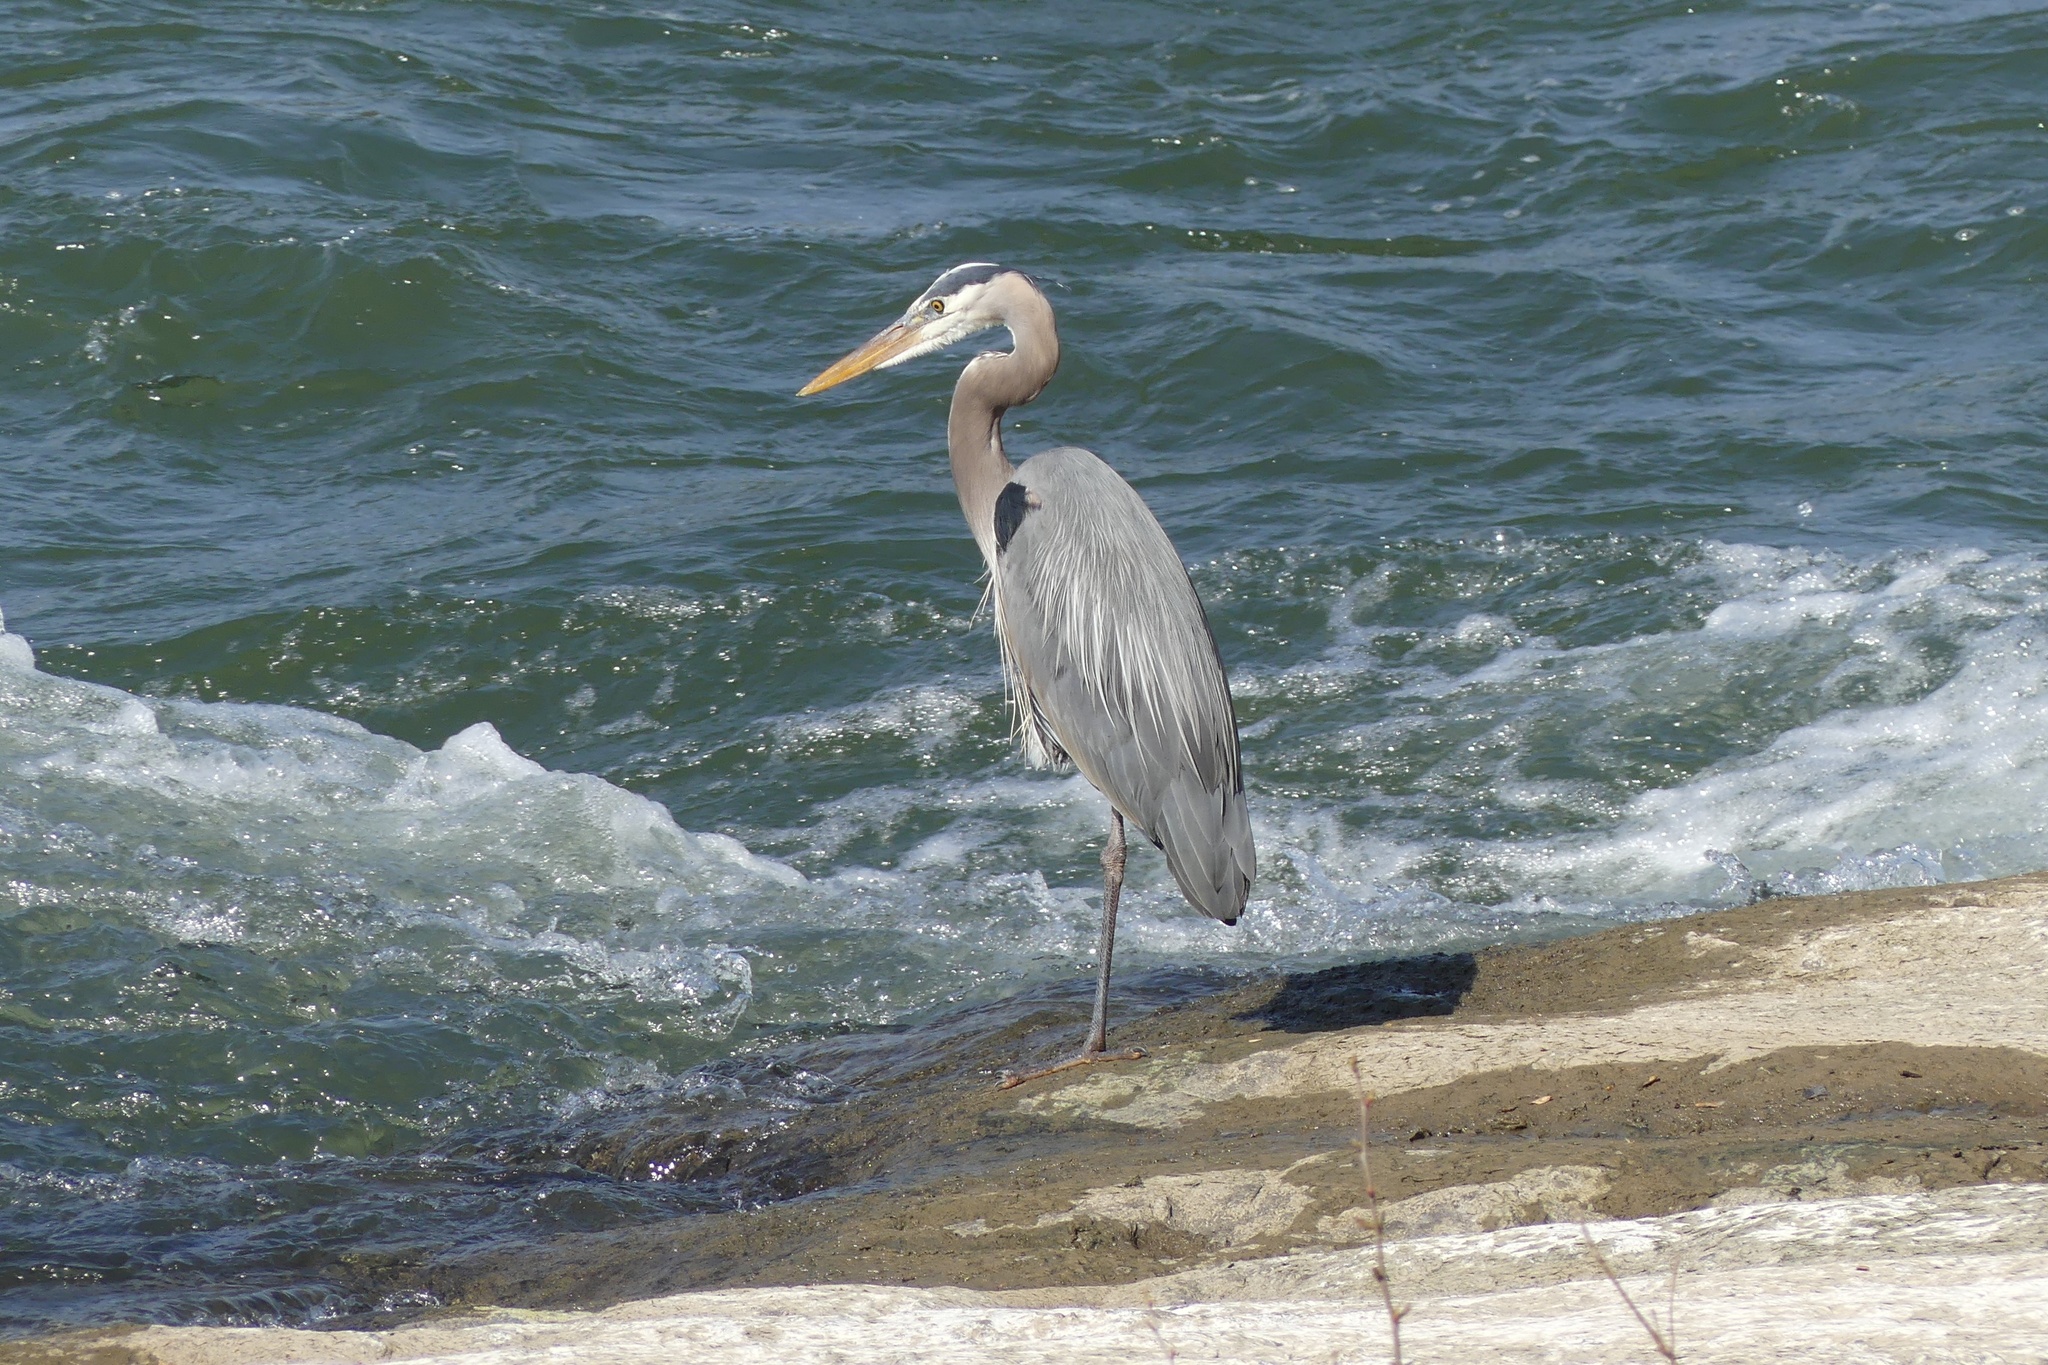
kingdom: Animalia
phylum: Chordata
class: Aves
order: Pelecaniformes
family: Ardeidae
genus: Ardea
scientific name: Ardea herodias
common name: Great blue heron
